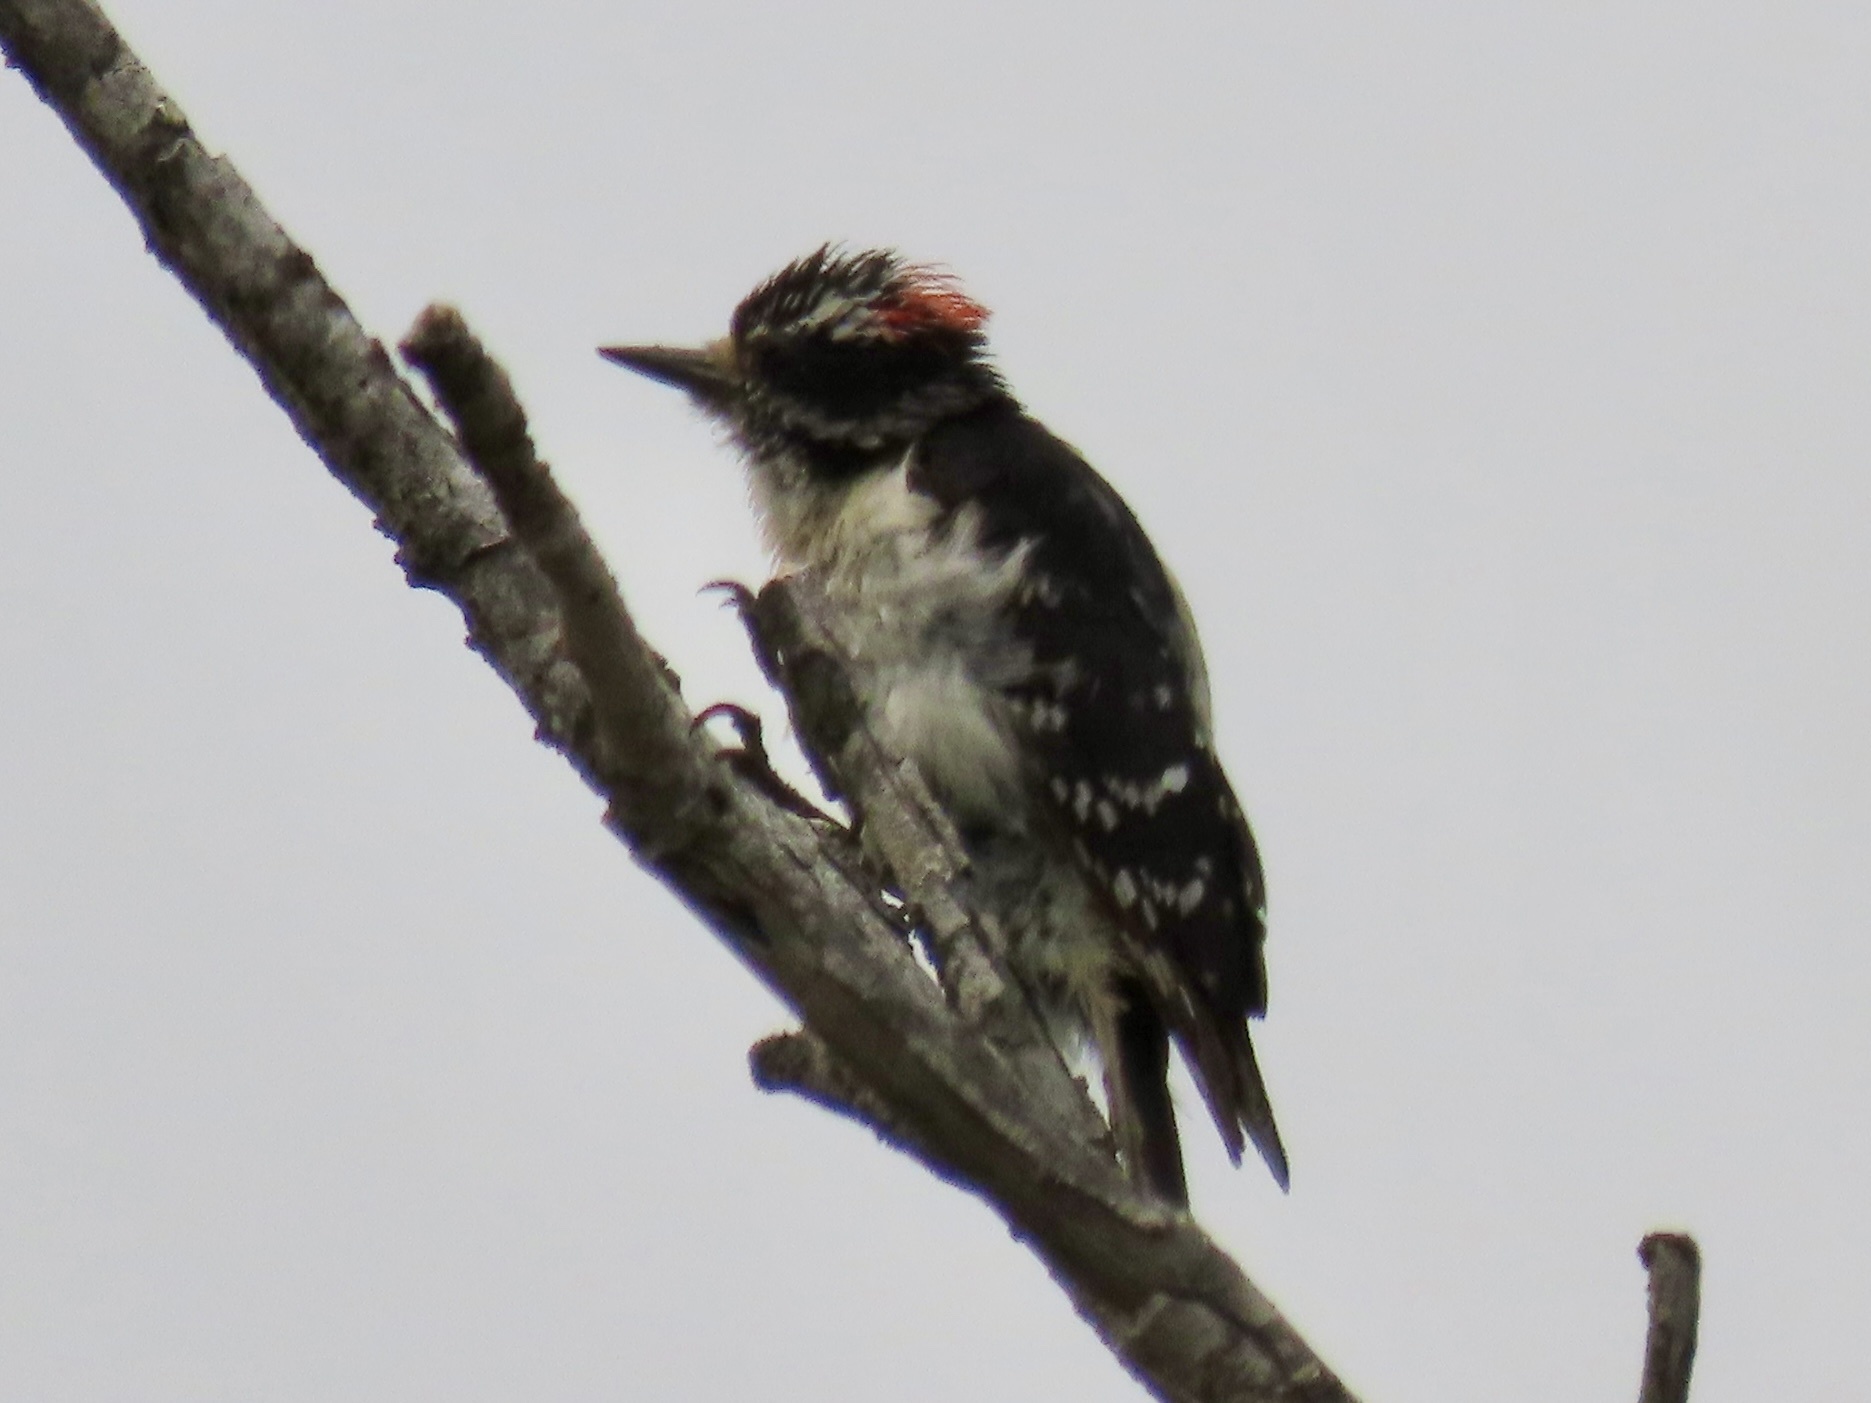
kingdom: Animalia
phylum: Chordata
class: Aves
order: Piciformes
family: Picidae
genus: Dryobates
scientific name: Dryobates pubescens
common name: Downy woodpecker
